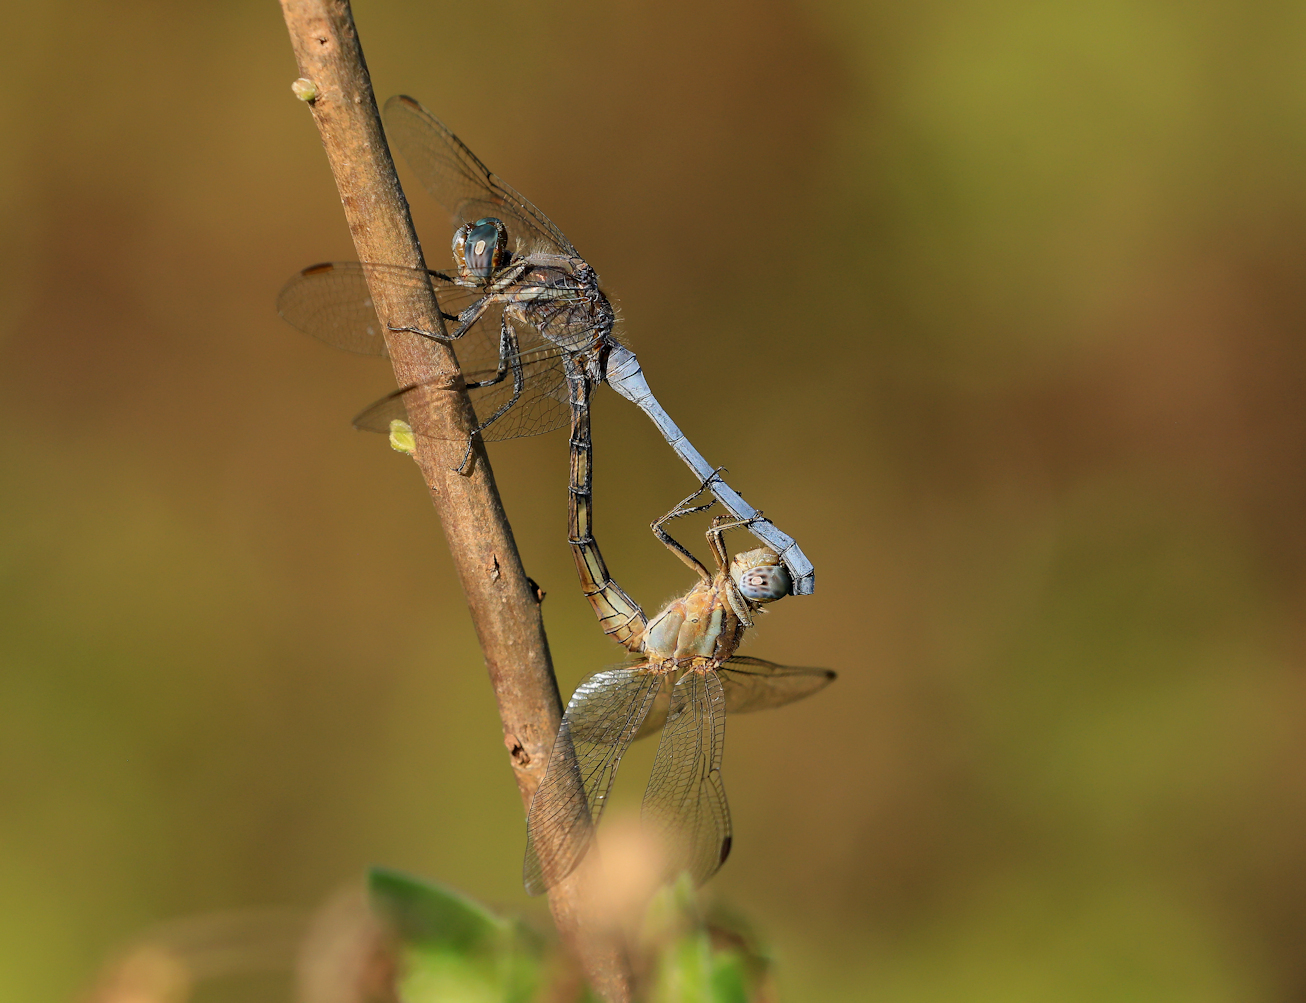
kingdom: Animalia
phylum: Arthropoda
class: Insecta
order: Odonata
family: Libellulidae
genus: Orthetrum
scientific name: Orthetrum chrysostigma
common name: Epaulet skimmer
